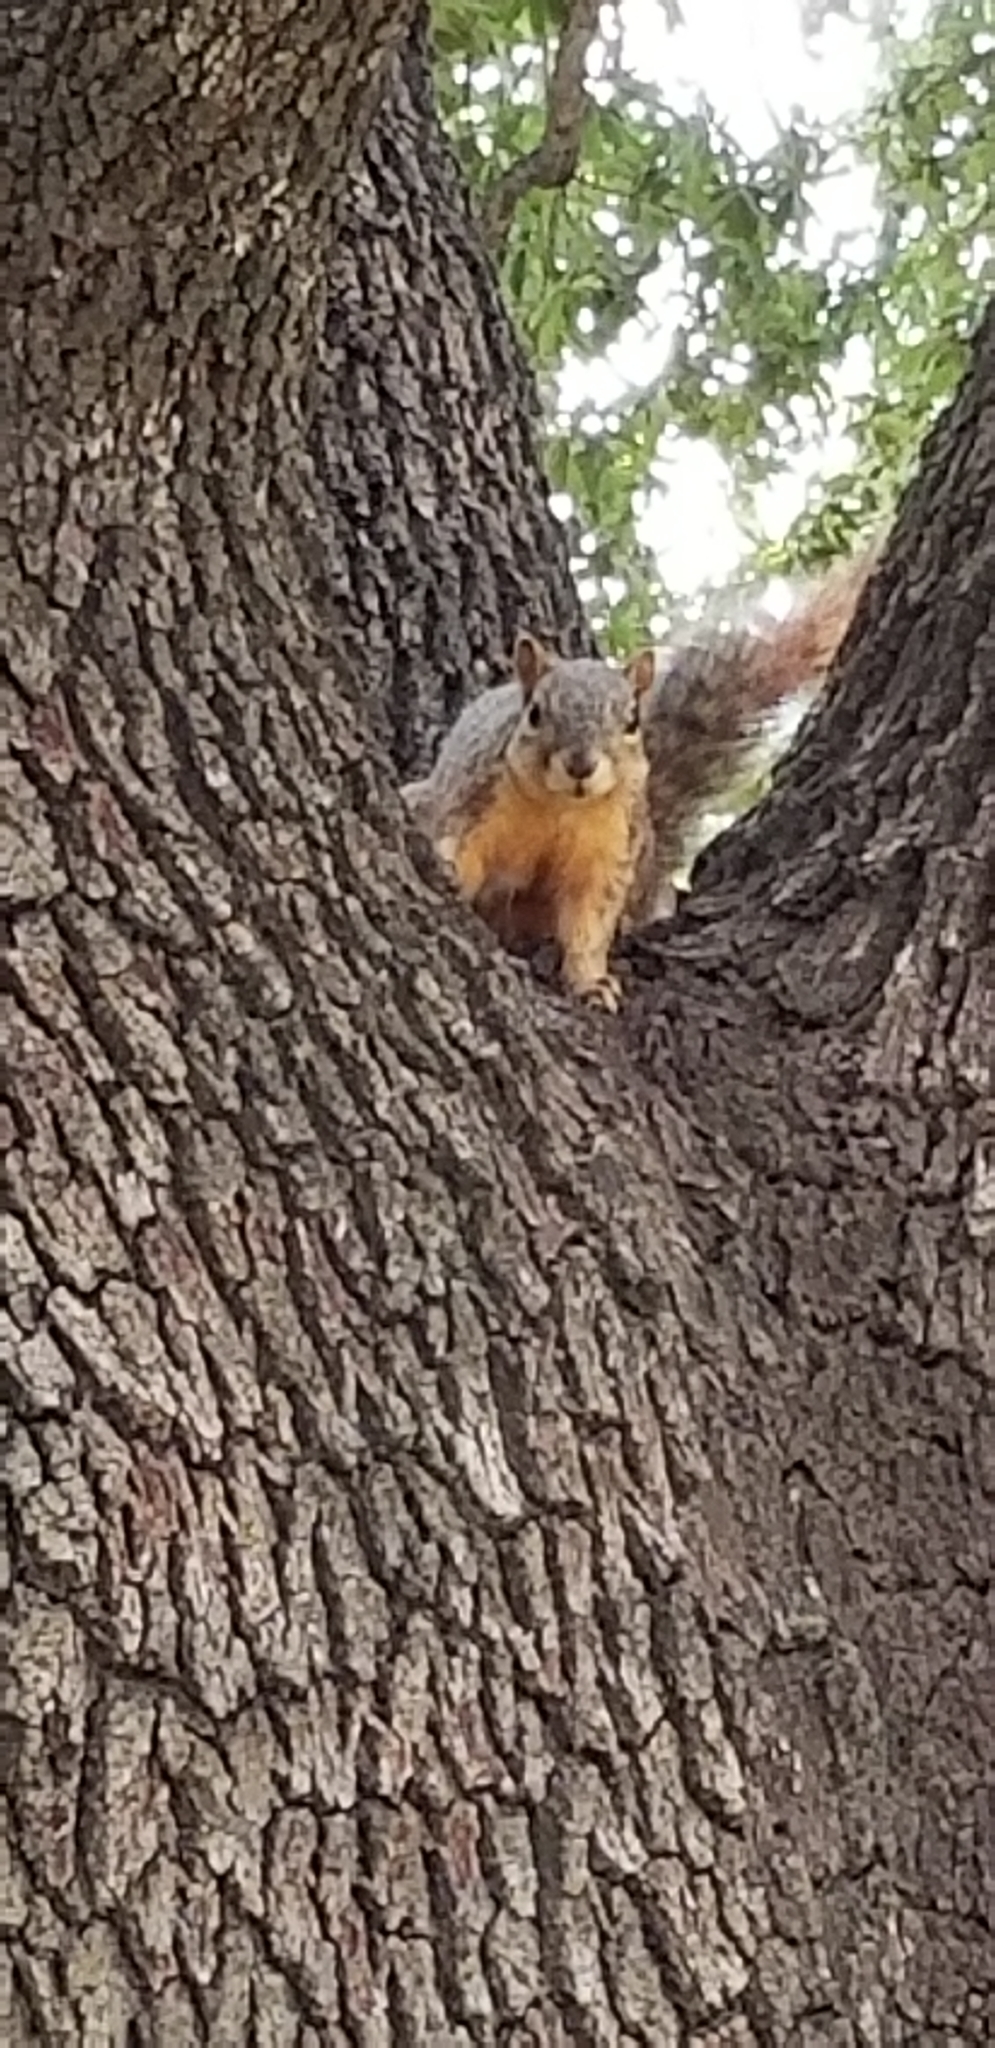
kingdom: Animalia
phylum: Chordata
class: Mammalia
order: Rodentia
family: Sciuridae
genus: Sciurus
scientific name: Sciurus niger
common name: Fox squirrel
